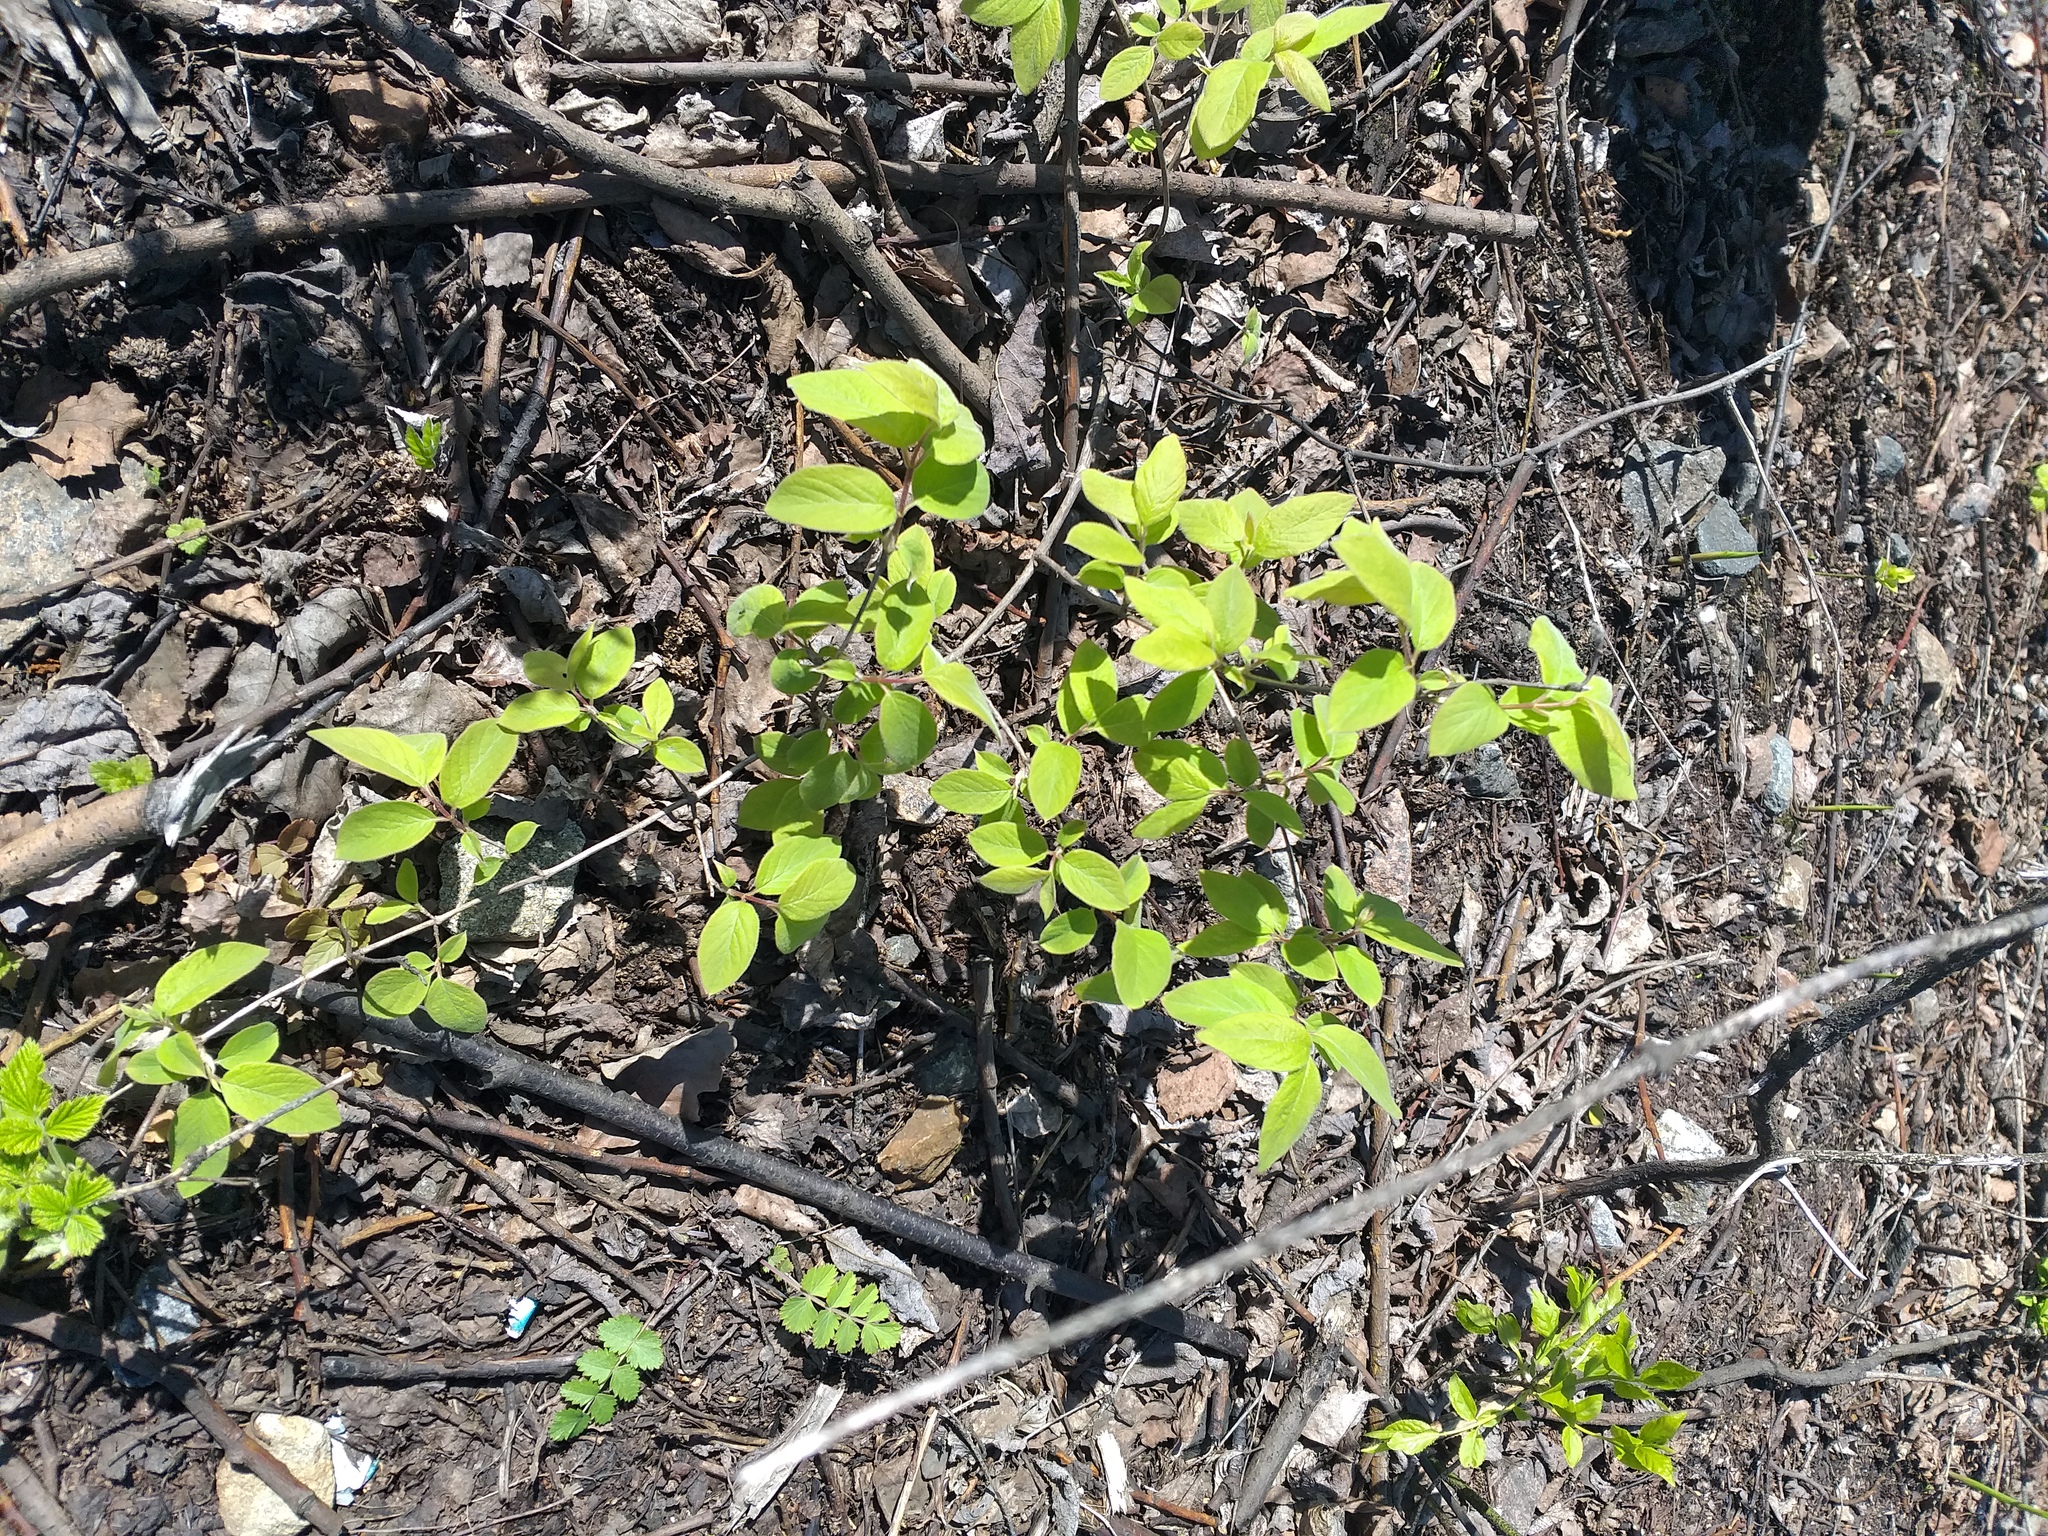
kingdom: Plantae
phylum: Tracheophyta
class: Magnoliopsida
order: Dipsacales
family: Caprifoliaceae
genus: Lonicera
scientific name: Lonicera xylosteum
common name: Fly honeysuckle
